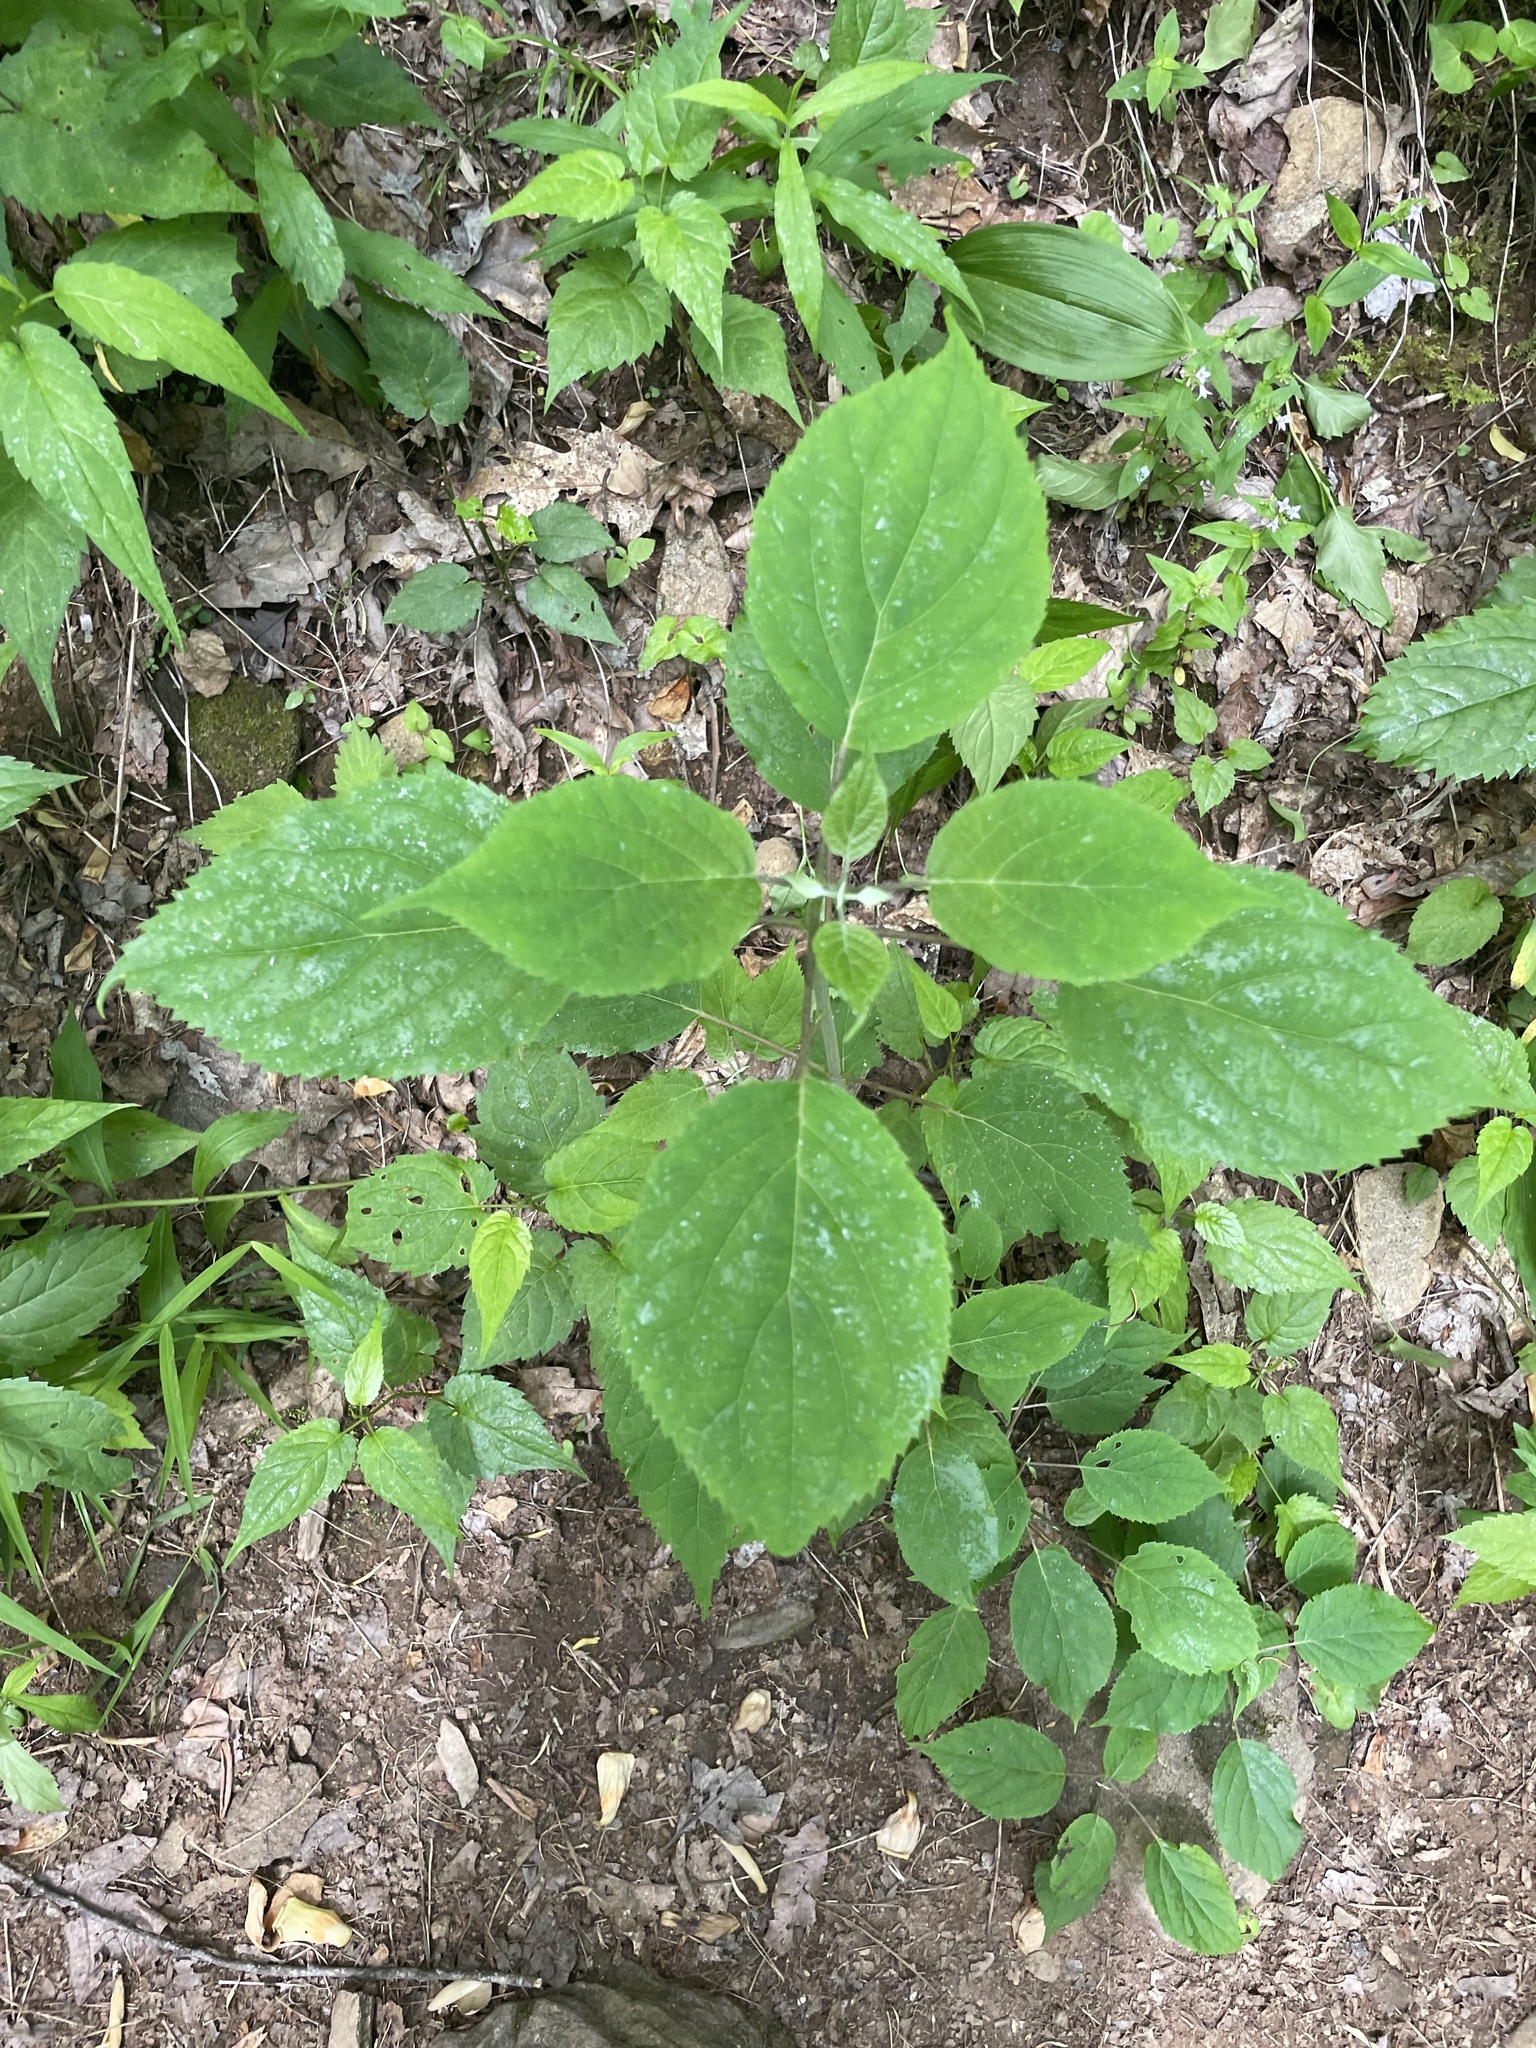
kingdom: Plantae
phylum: Tracheophyta
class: Magnoliopsida
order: Rosales
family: Urticaceae
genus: Laportea
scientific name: Laportea canadensis
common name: Canada nettle
